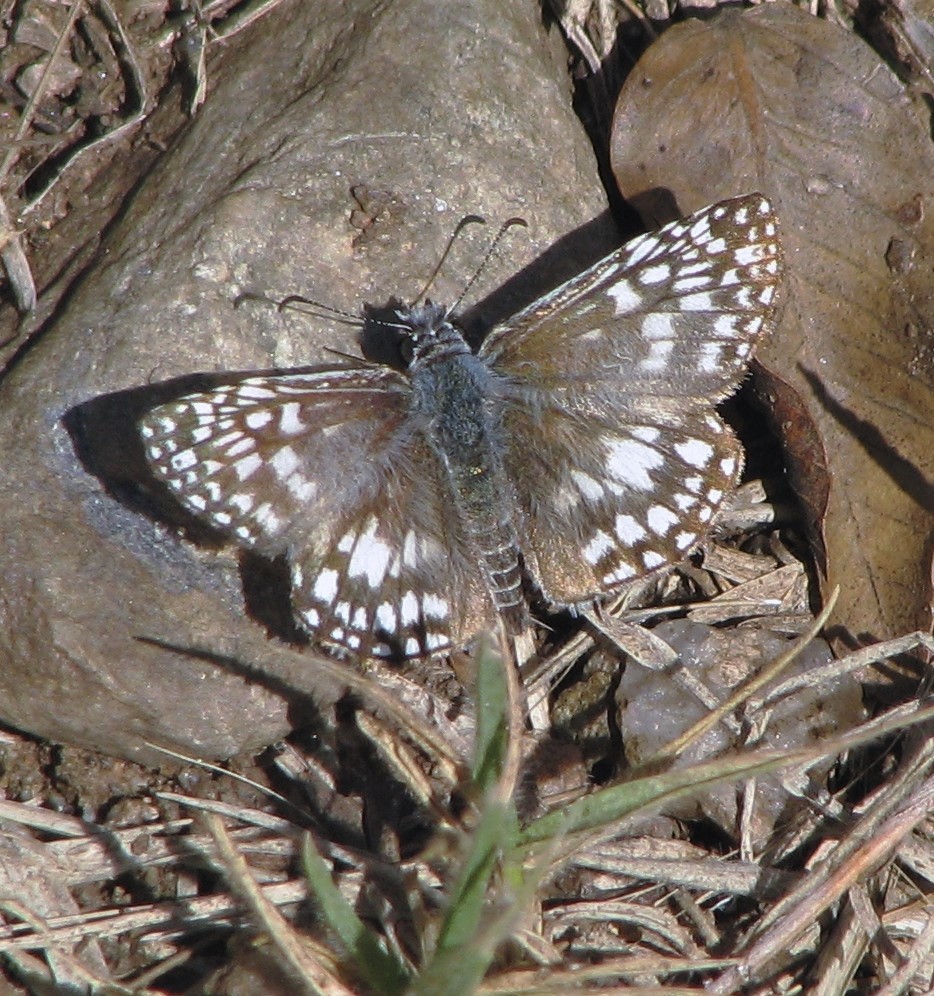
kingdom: Animalia
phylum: Arthropoda
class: Insecta
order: Lepidoptera
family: Hesperiidae
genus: Pyrgus
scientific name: Pyrgus oileus
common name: Tropical checkered-skipper
